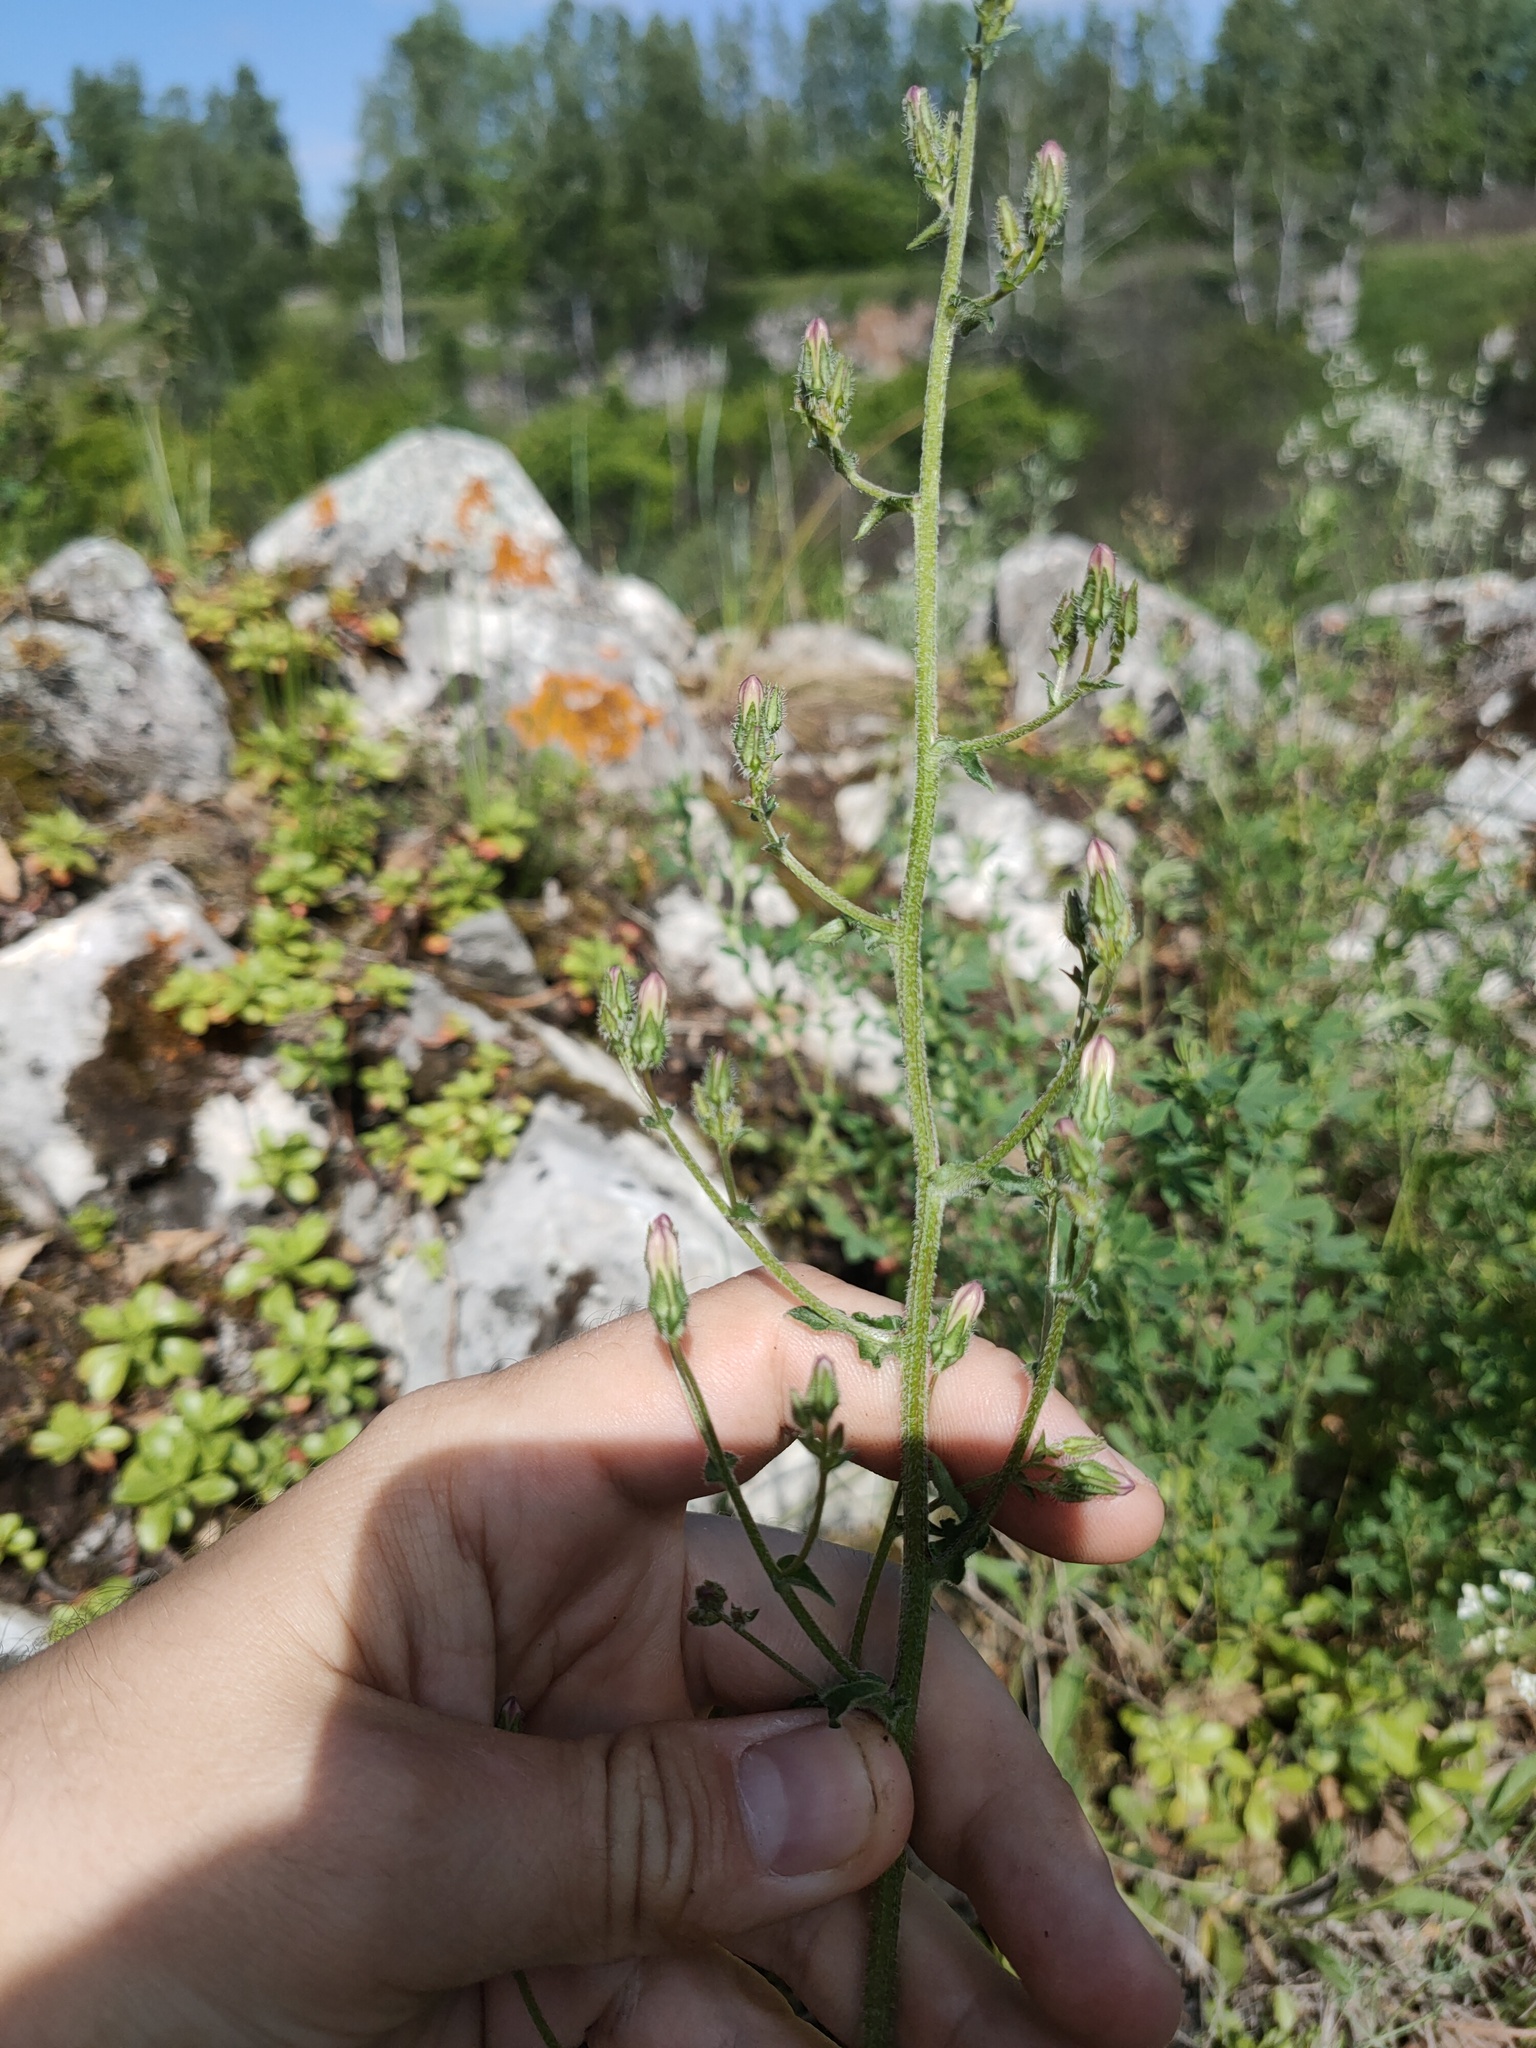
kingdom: Plantae
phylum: Tracheophyta
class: Magnoliopsida
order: Asterales
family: Campanulaceae
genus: Campanula
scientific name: Campanula sibirica
